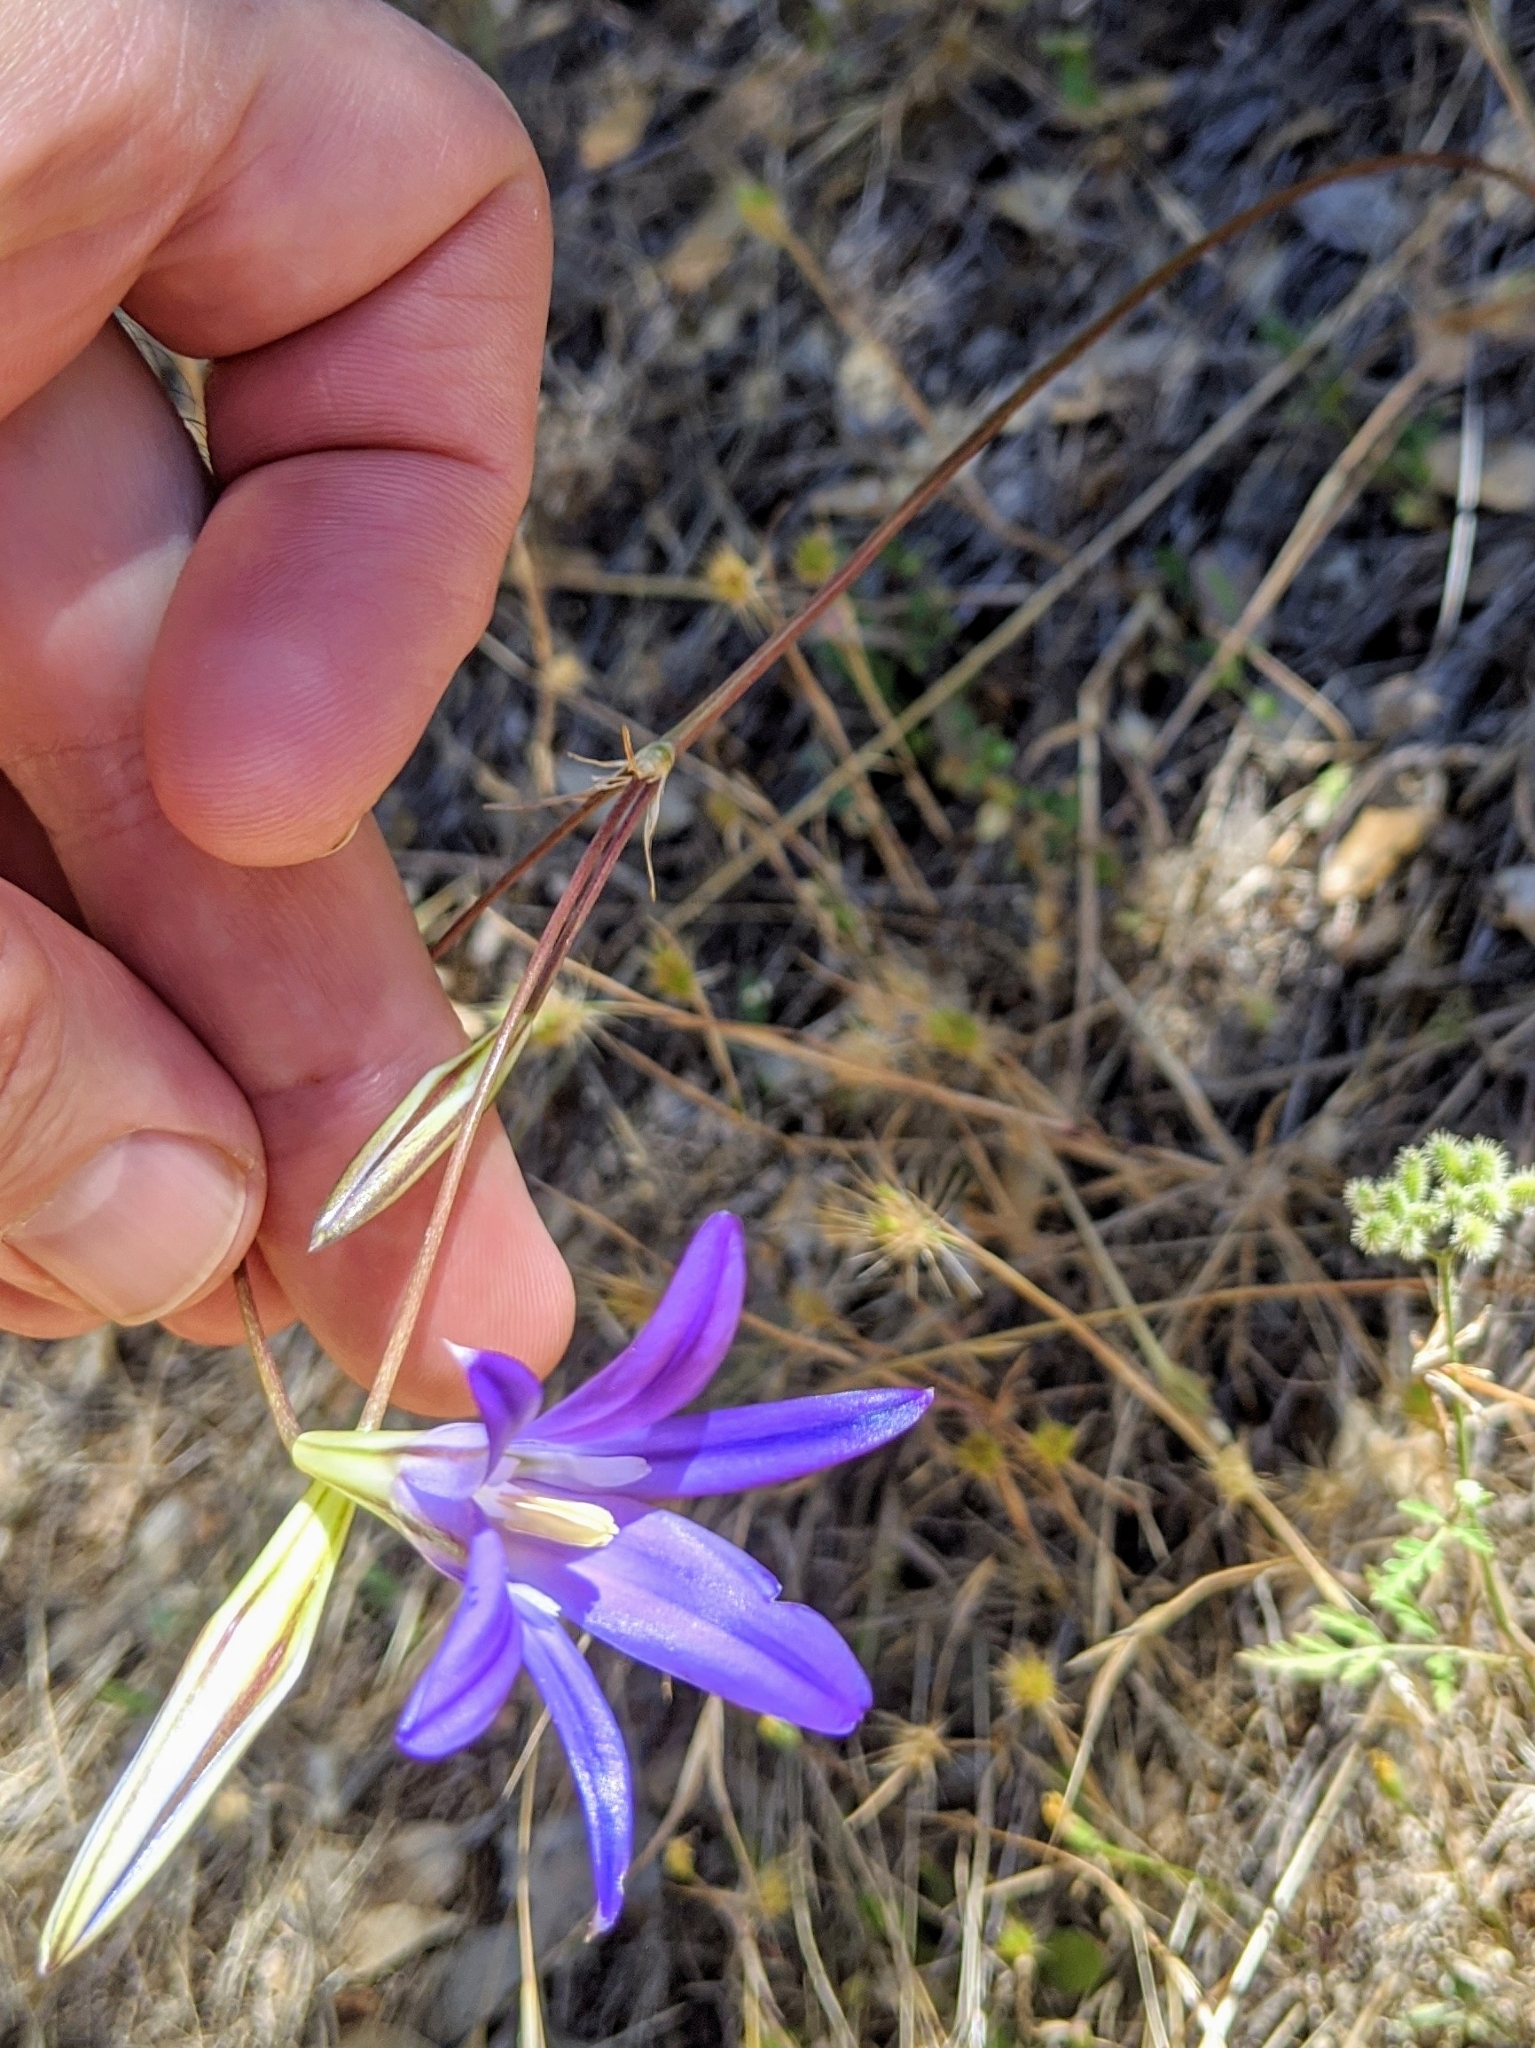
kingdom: Plantae
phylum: Tracheophyta
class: Liliopsida
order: Asparagales
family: Asparagaceae
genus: Brodiaea
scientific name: Brodiaea elegans
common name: Elegant cluster-lily
